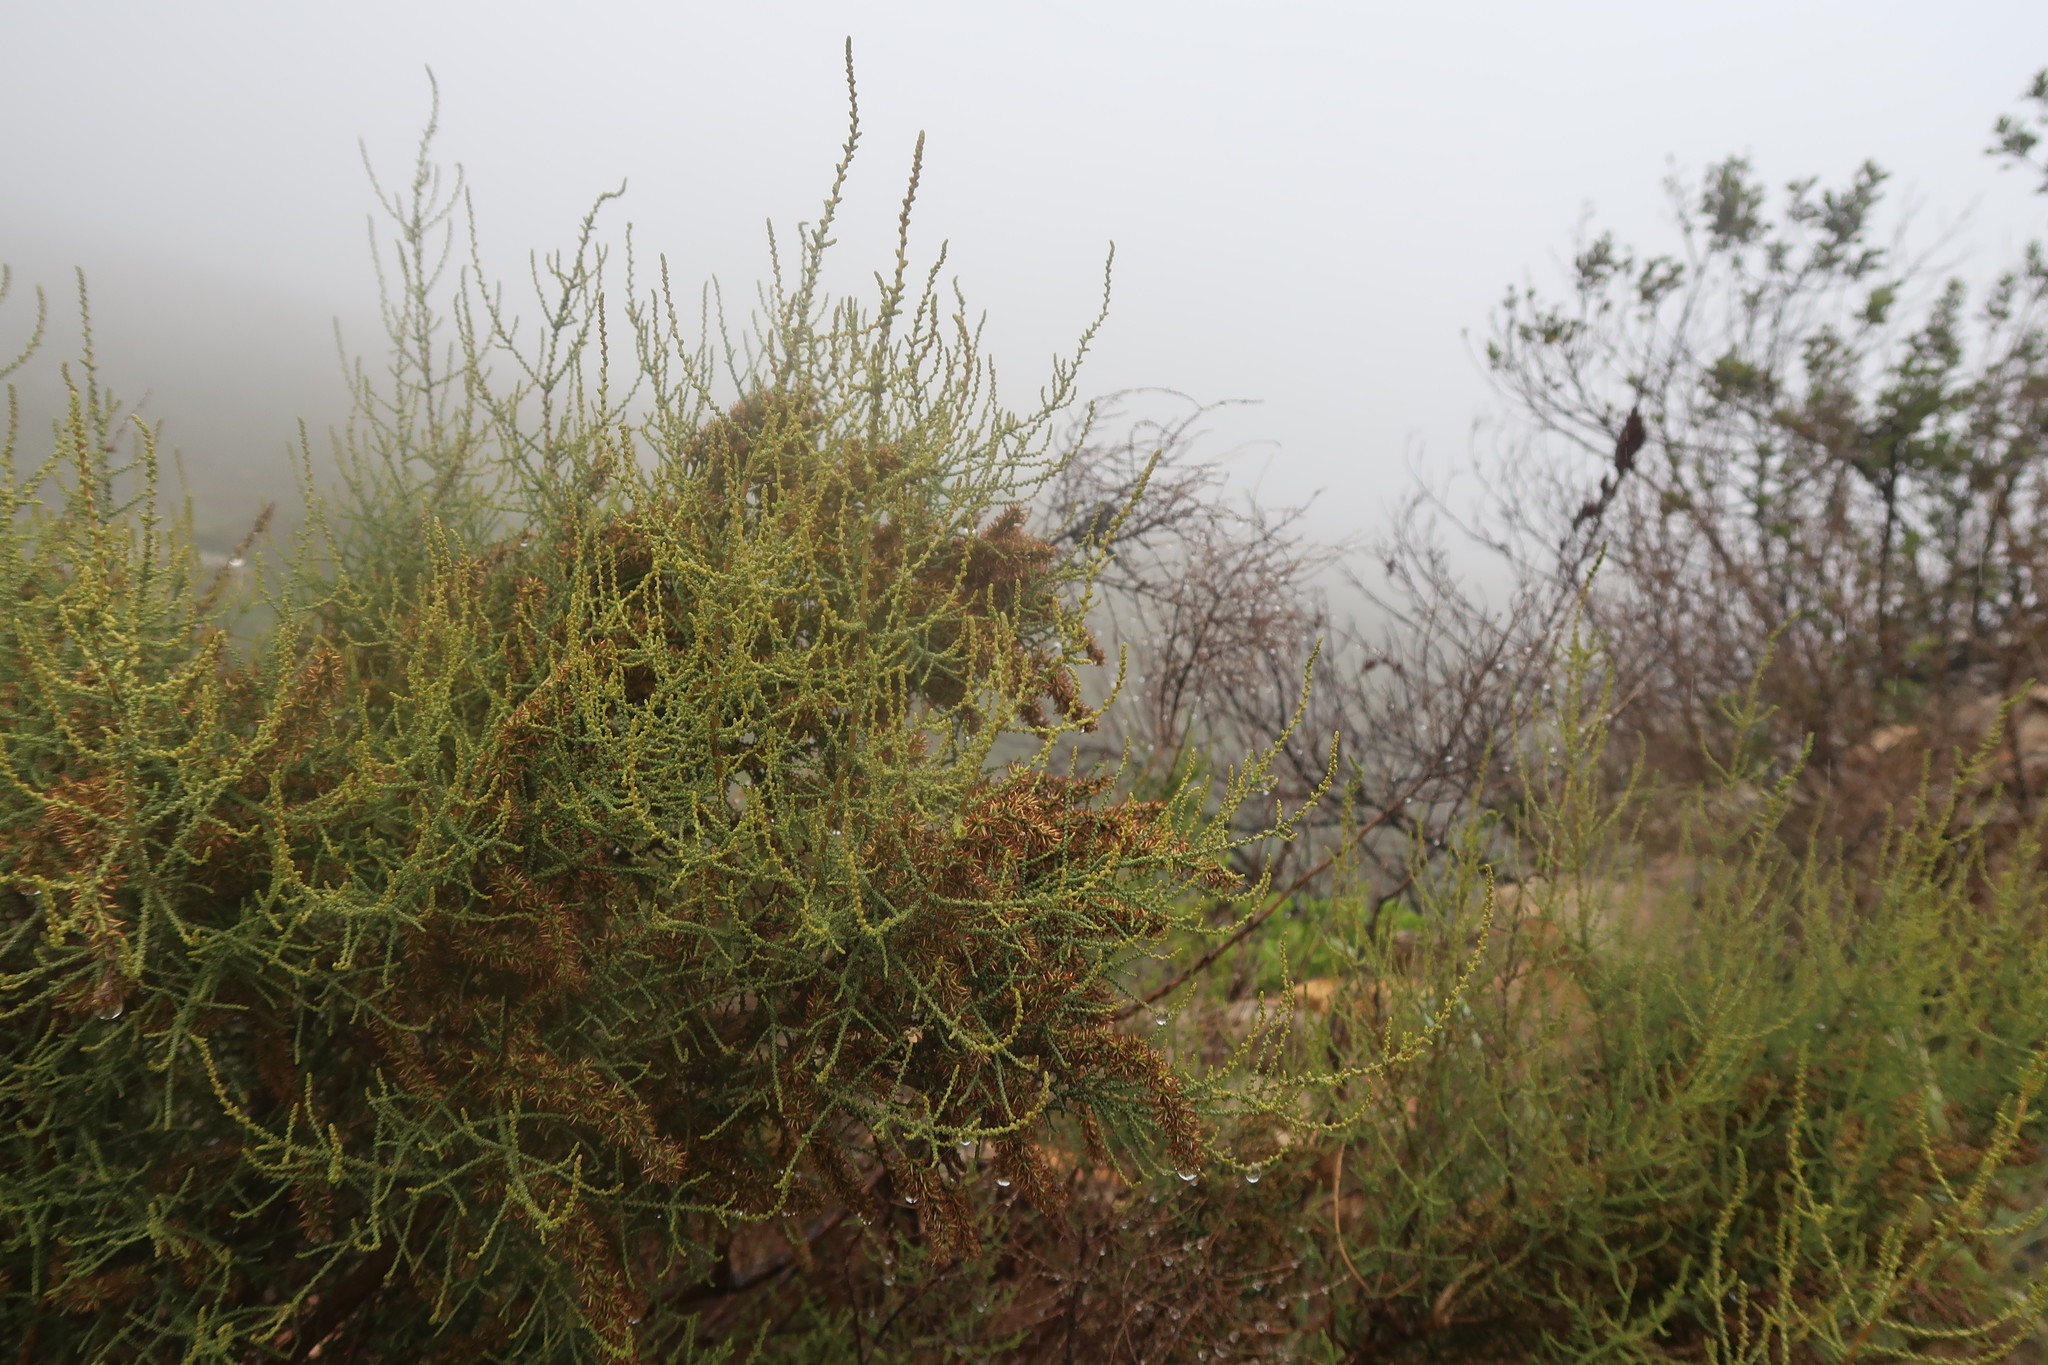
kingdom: Plantae
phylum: Tracheophyta
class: Magnoliopsida
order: Asterales
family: Asteraceae
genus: Seriphium
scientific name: Seriphium plumosum
